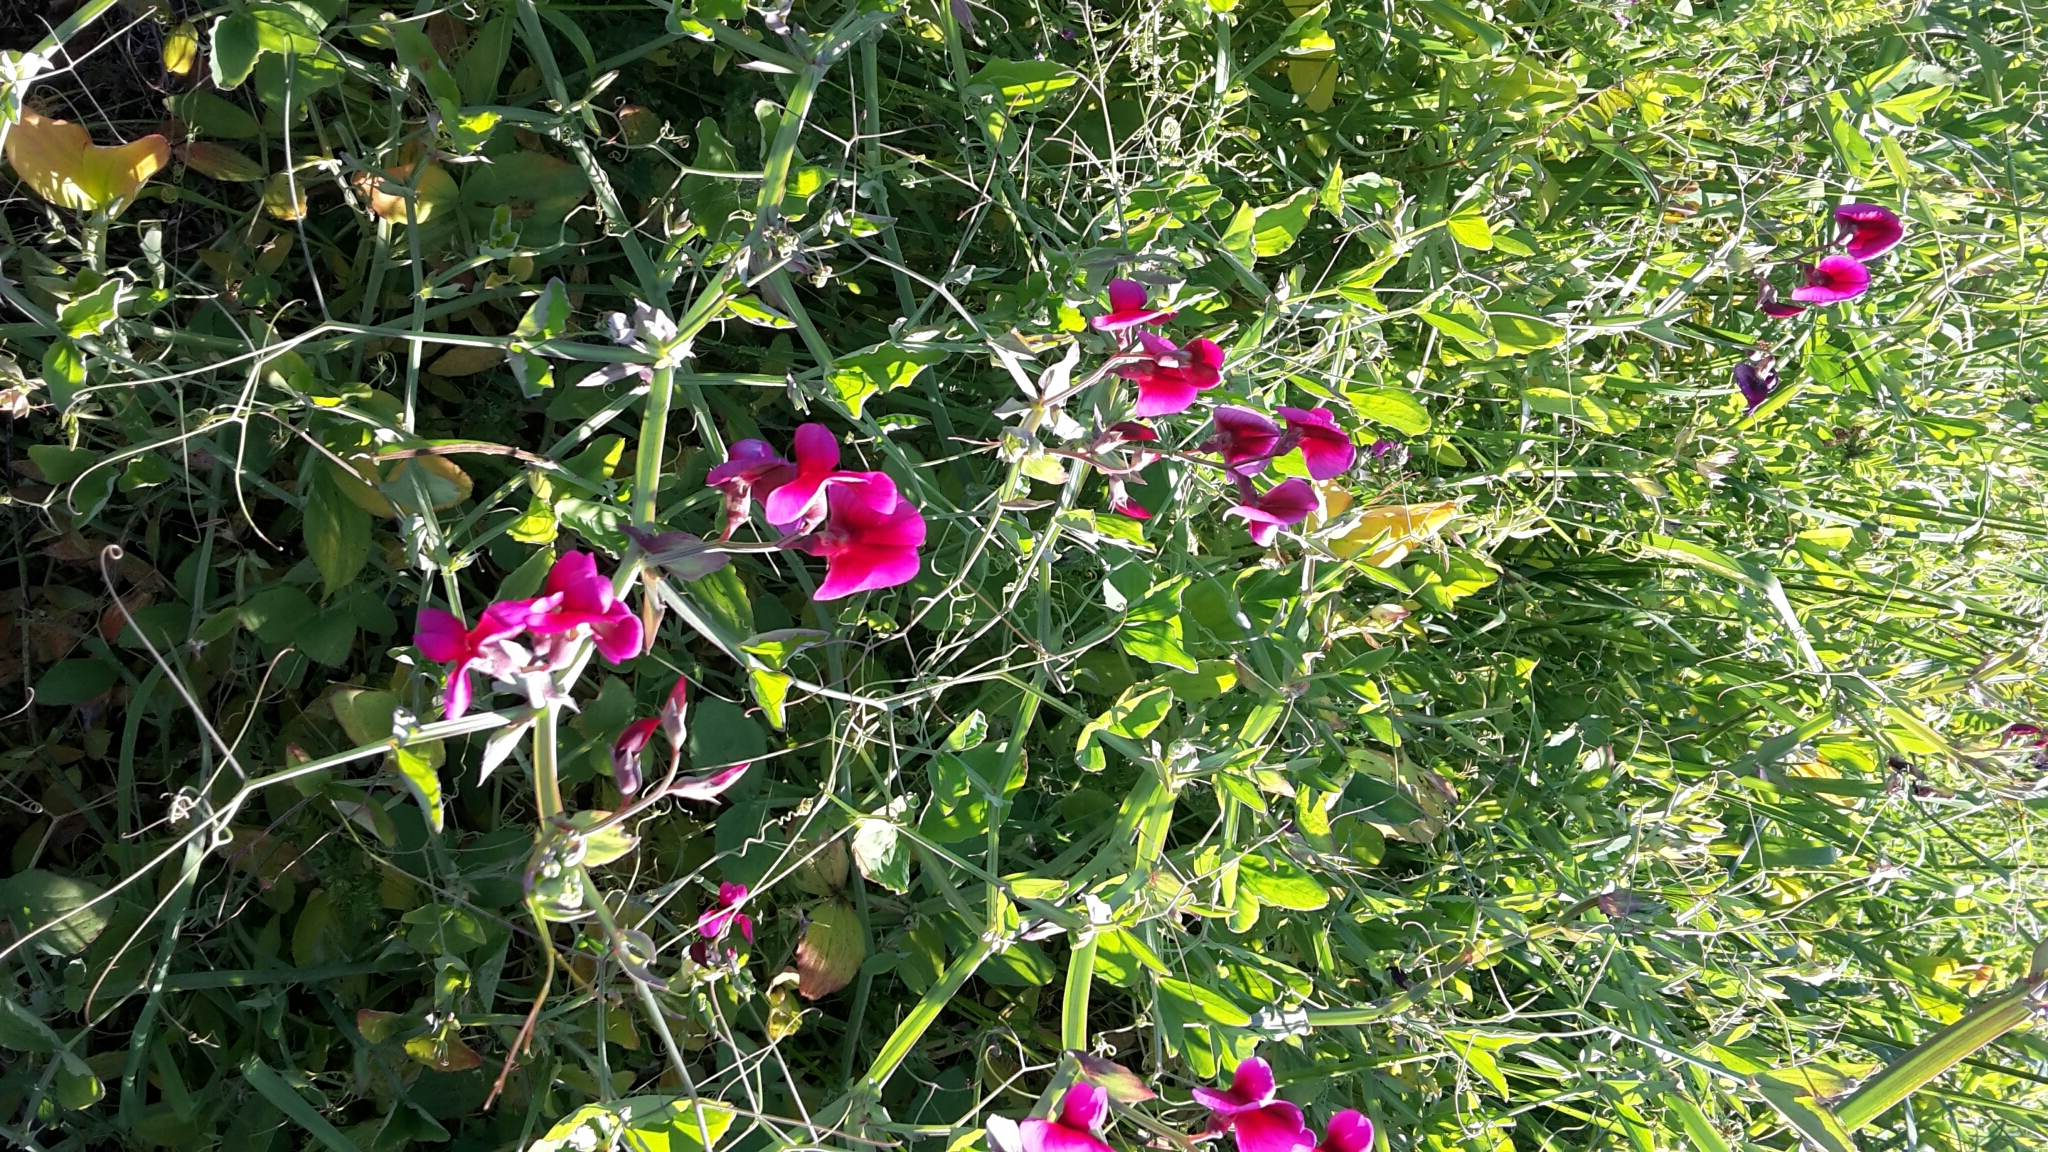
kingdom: Plantae
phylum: Tracheophyta
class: Magnoliopsida
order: Fabales
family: Fabaceae
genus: Lathyrus
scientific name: Lathyrus tingitanus
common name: Tangier pea
